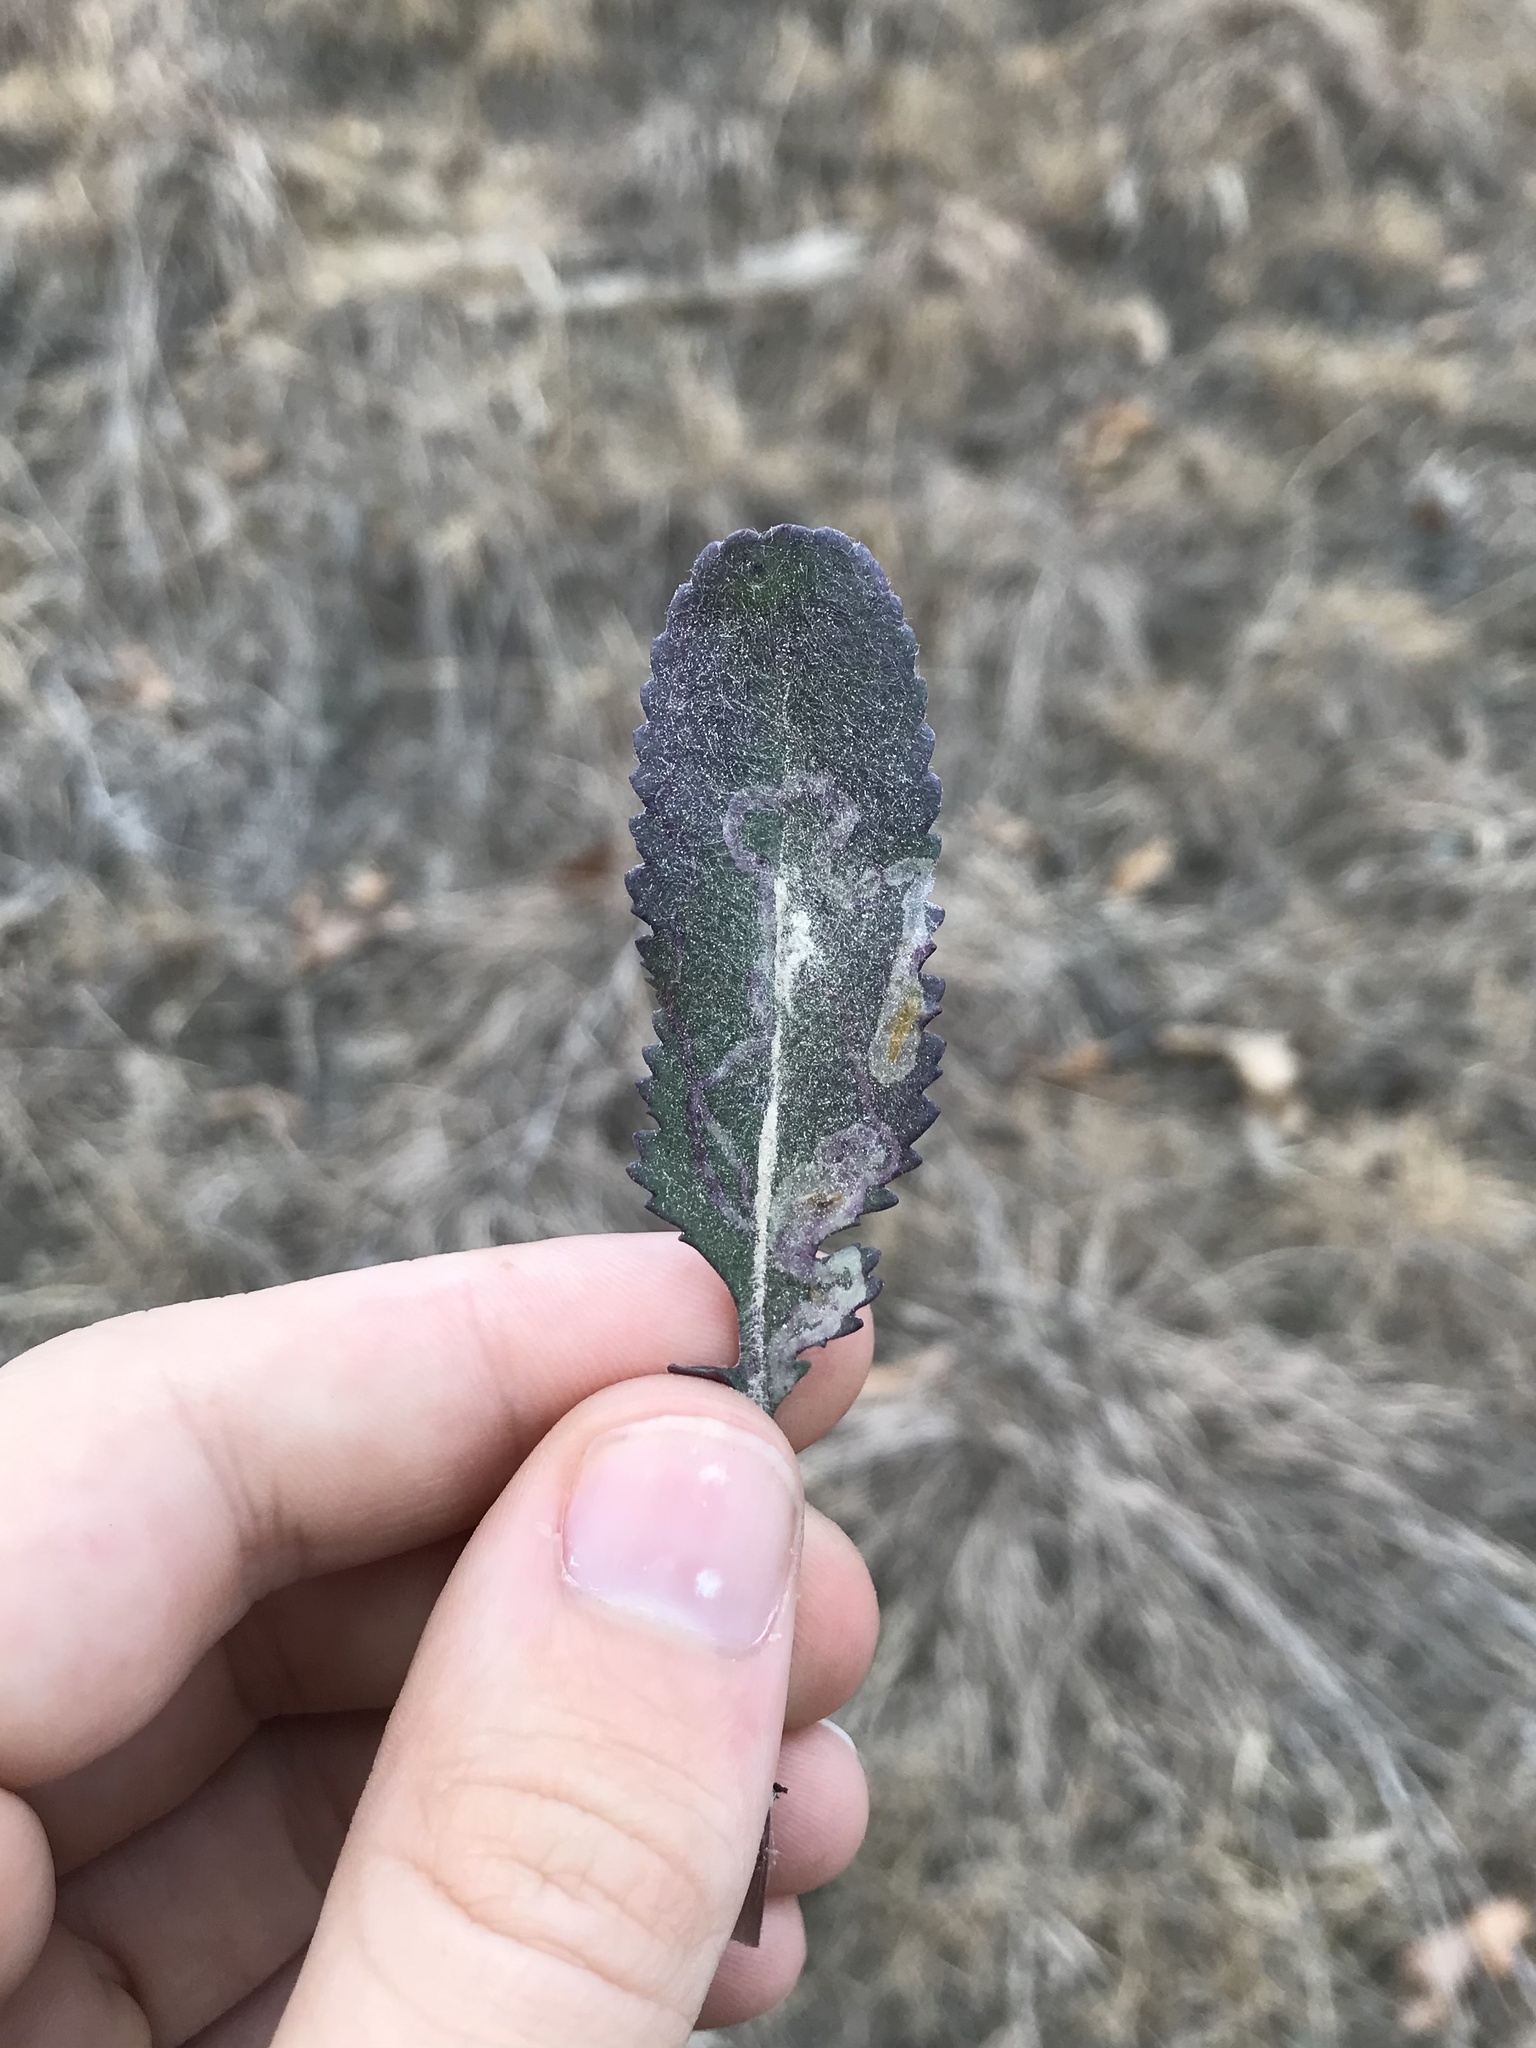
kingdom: Animalia
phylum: Arthropoda
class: Insecta
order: Lepidoptera
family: Gracillariidae
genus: Phyllocnistis
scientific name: Phyllocnistis insignis
